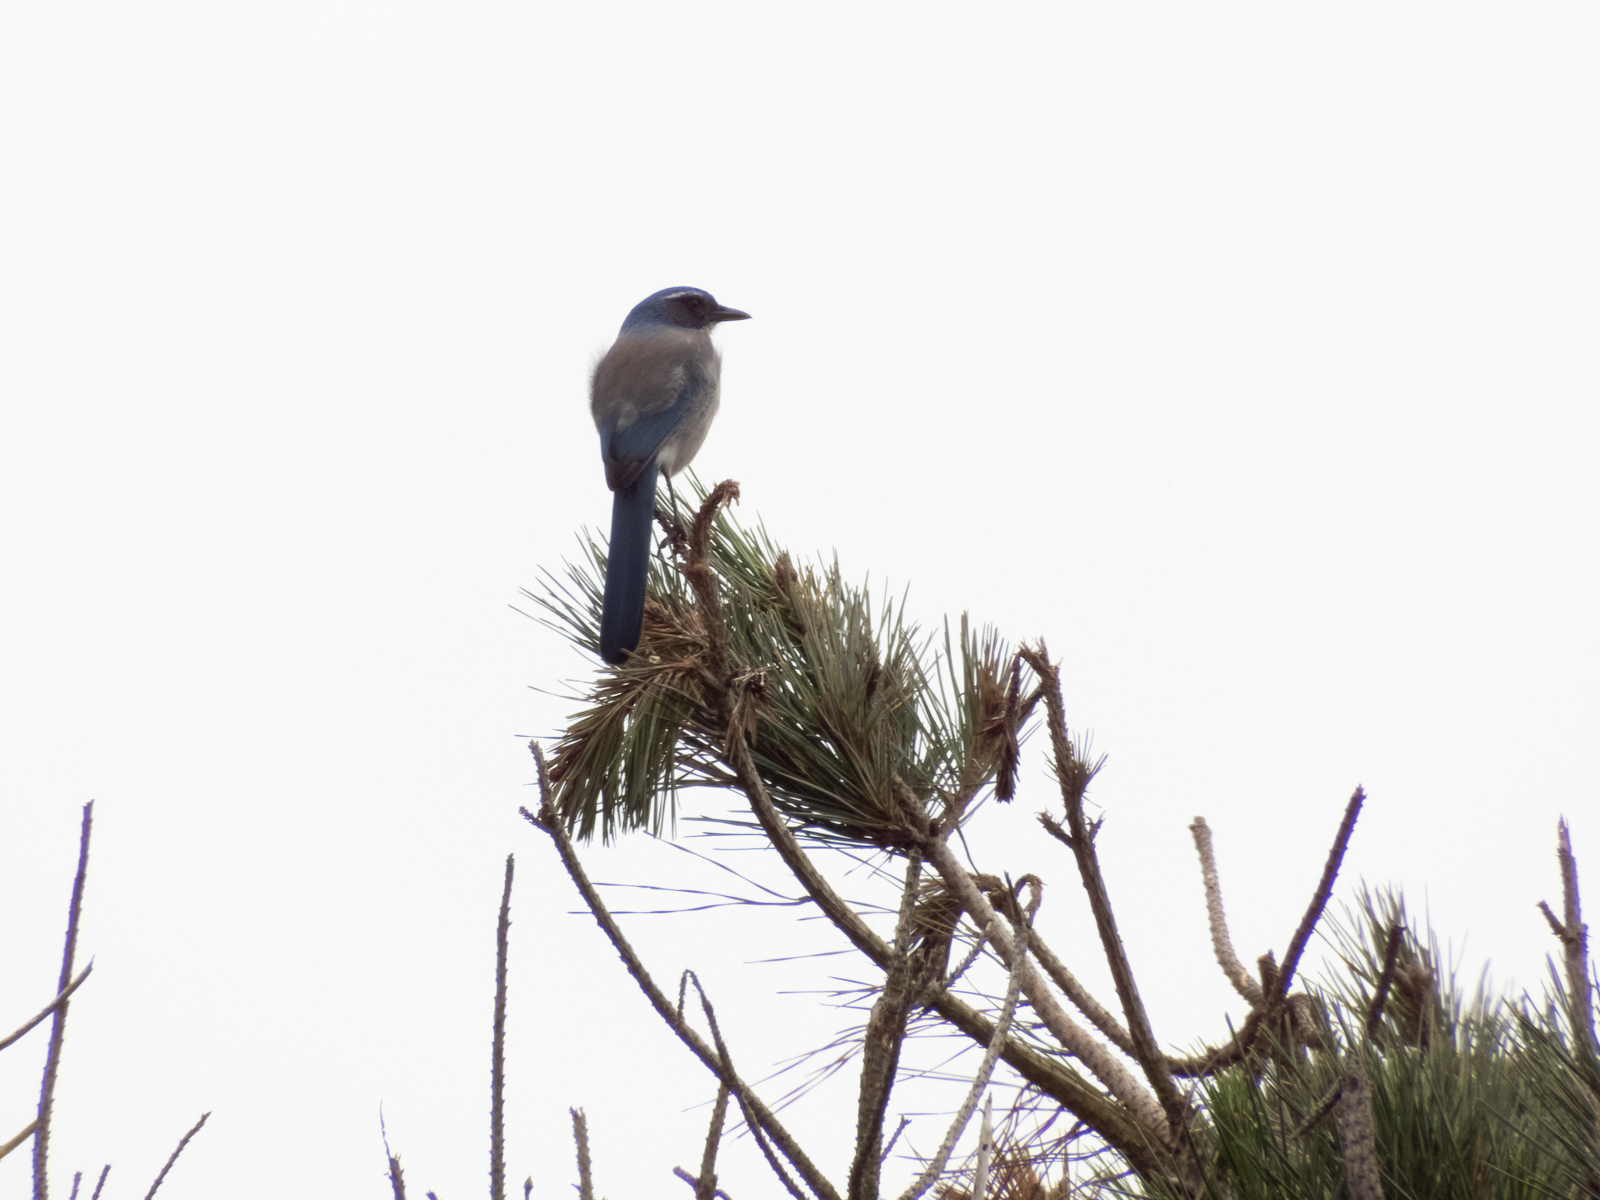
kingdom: Animalia
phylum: Chordata
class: Aves
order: Passeriformes
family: Corvidae
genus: Aphelocoma
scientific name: Aphelocoma californica
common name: California scrub-jay
